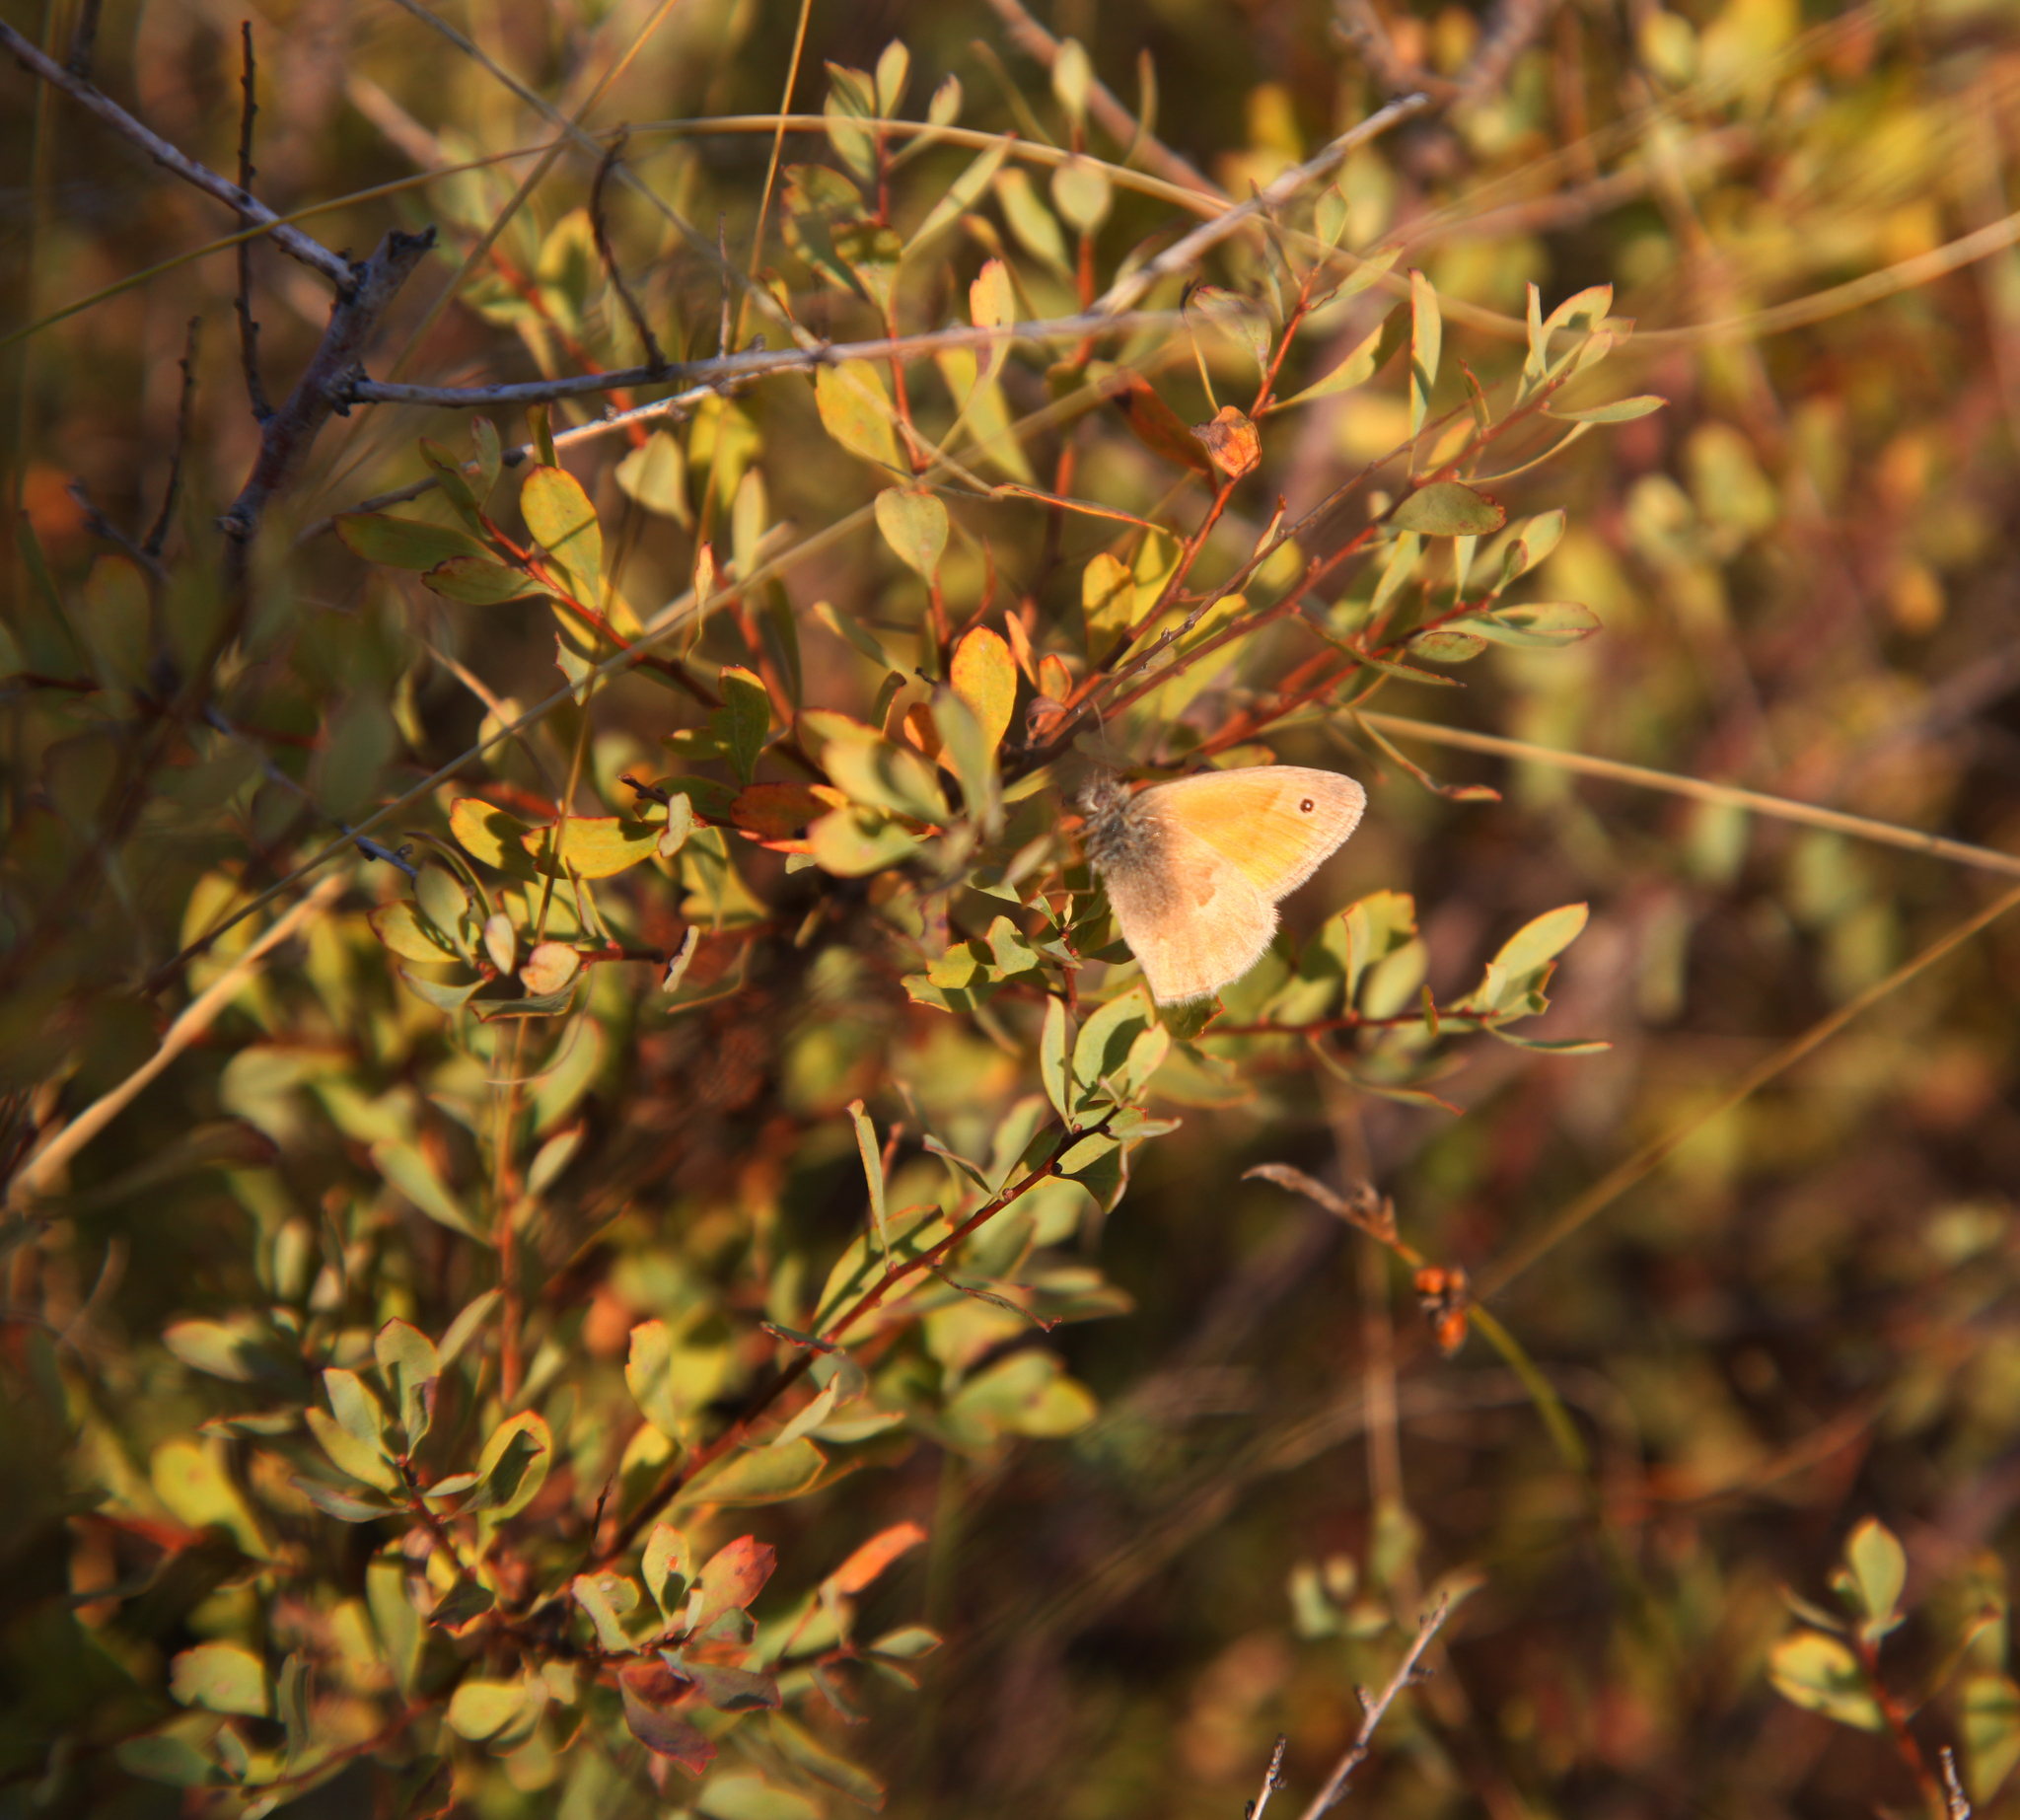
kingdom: Animalia
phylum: Arthropoda
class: Insecta
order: Lepidoptera
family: Nymphalidae
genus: Coenonympha
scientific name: Coenonympha pamphilus
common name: Small heath
